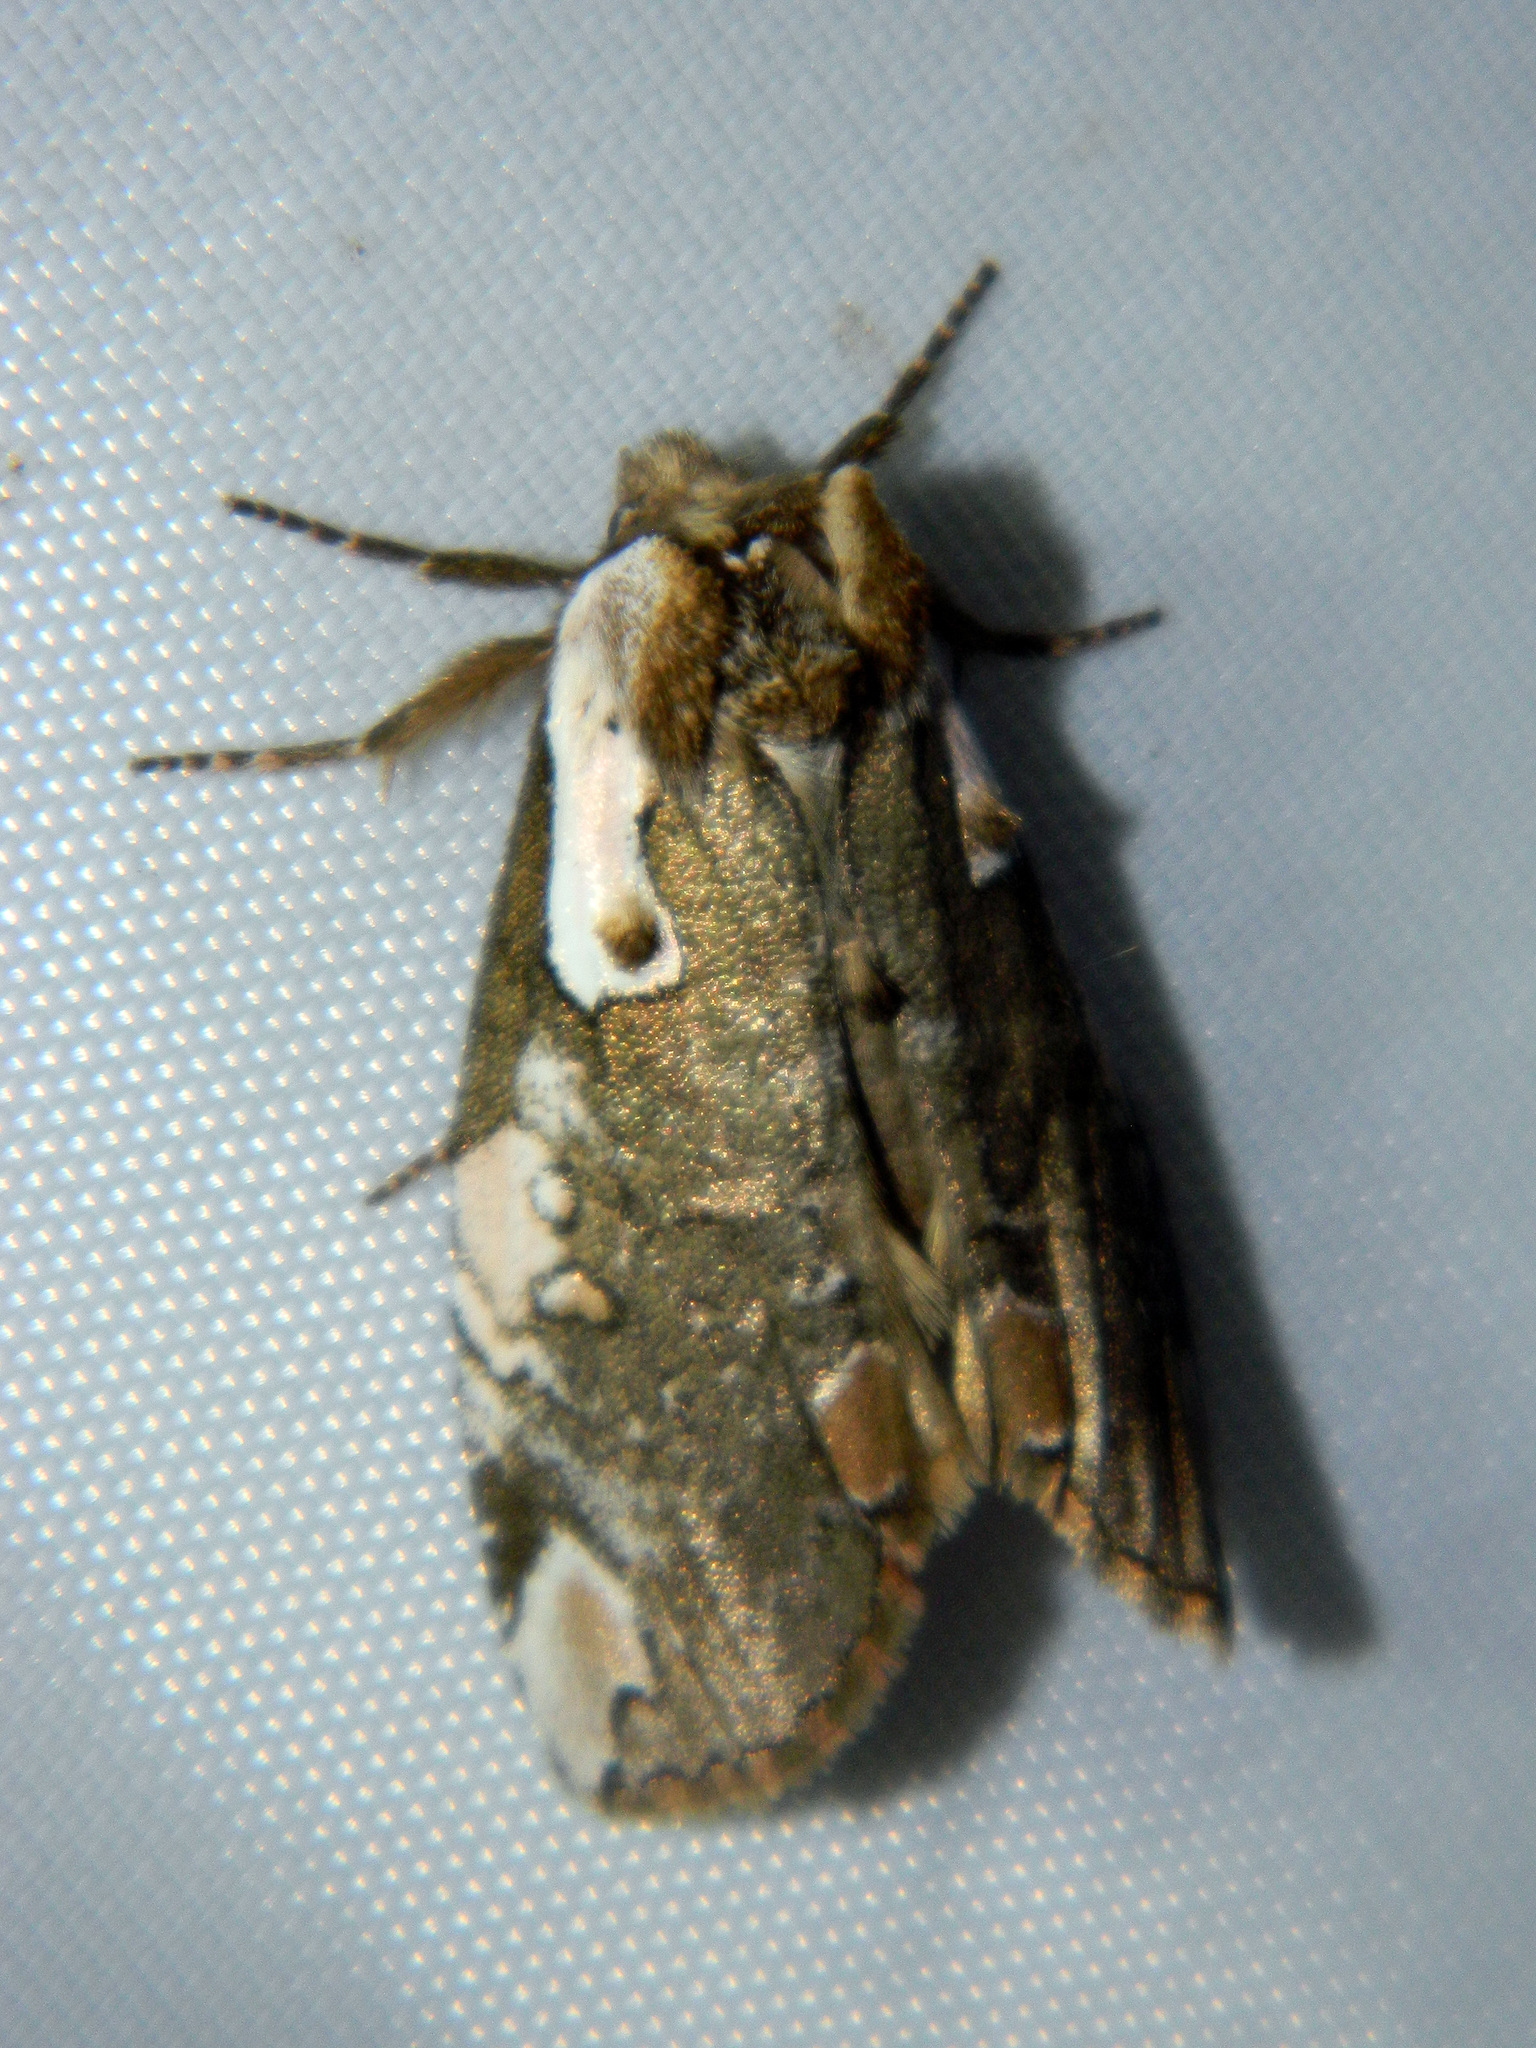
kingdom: Animalia
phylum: Arthropoda
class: Insecta
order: Lepidoptera
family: Drepanidae
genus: Euthyatira
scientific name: Euthyatira pudens
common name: Dogwood thyatirid moth
